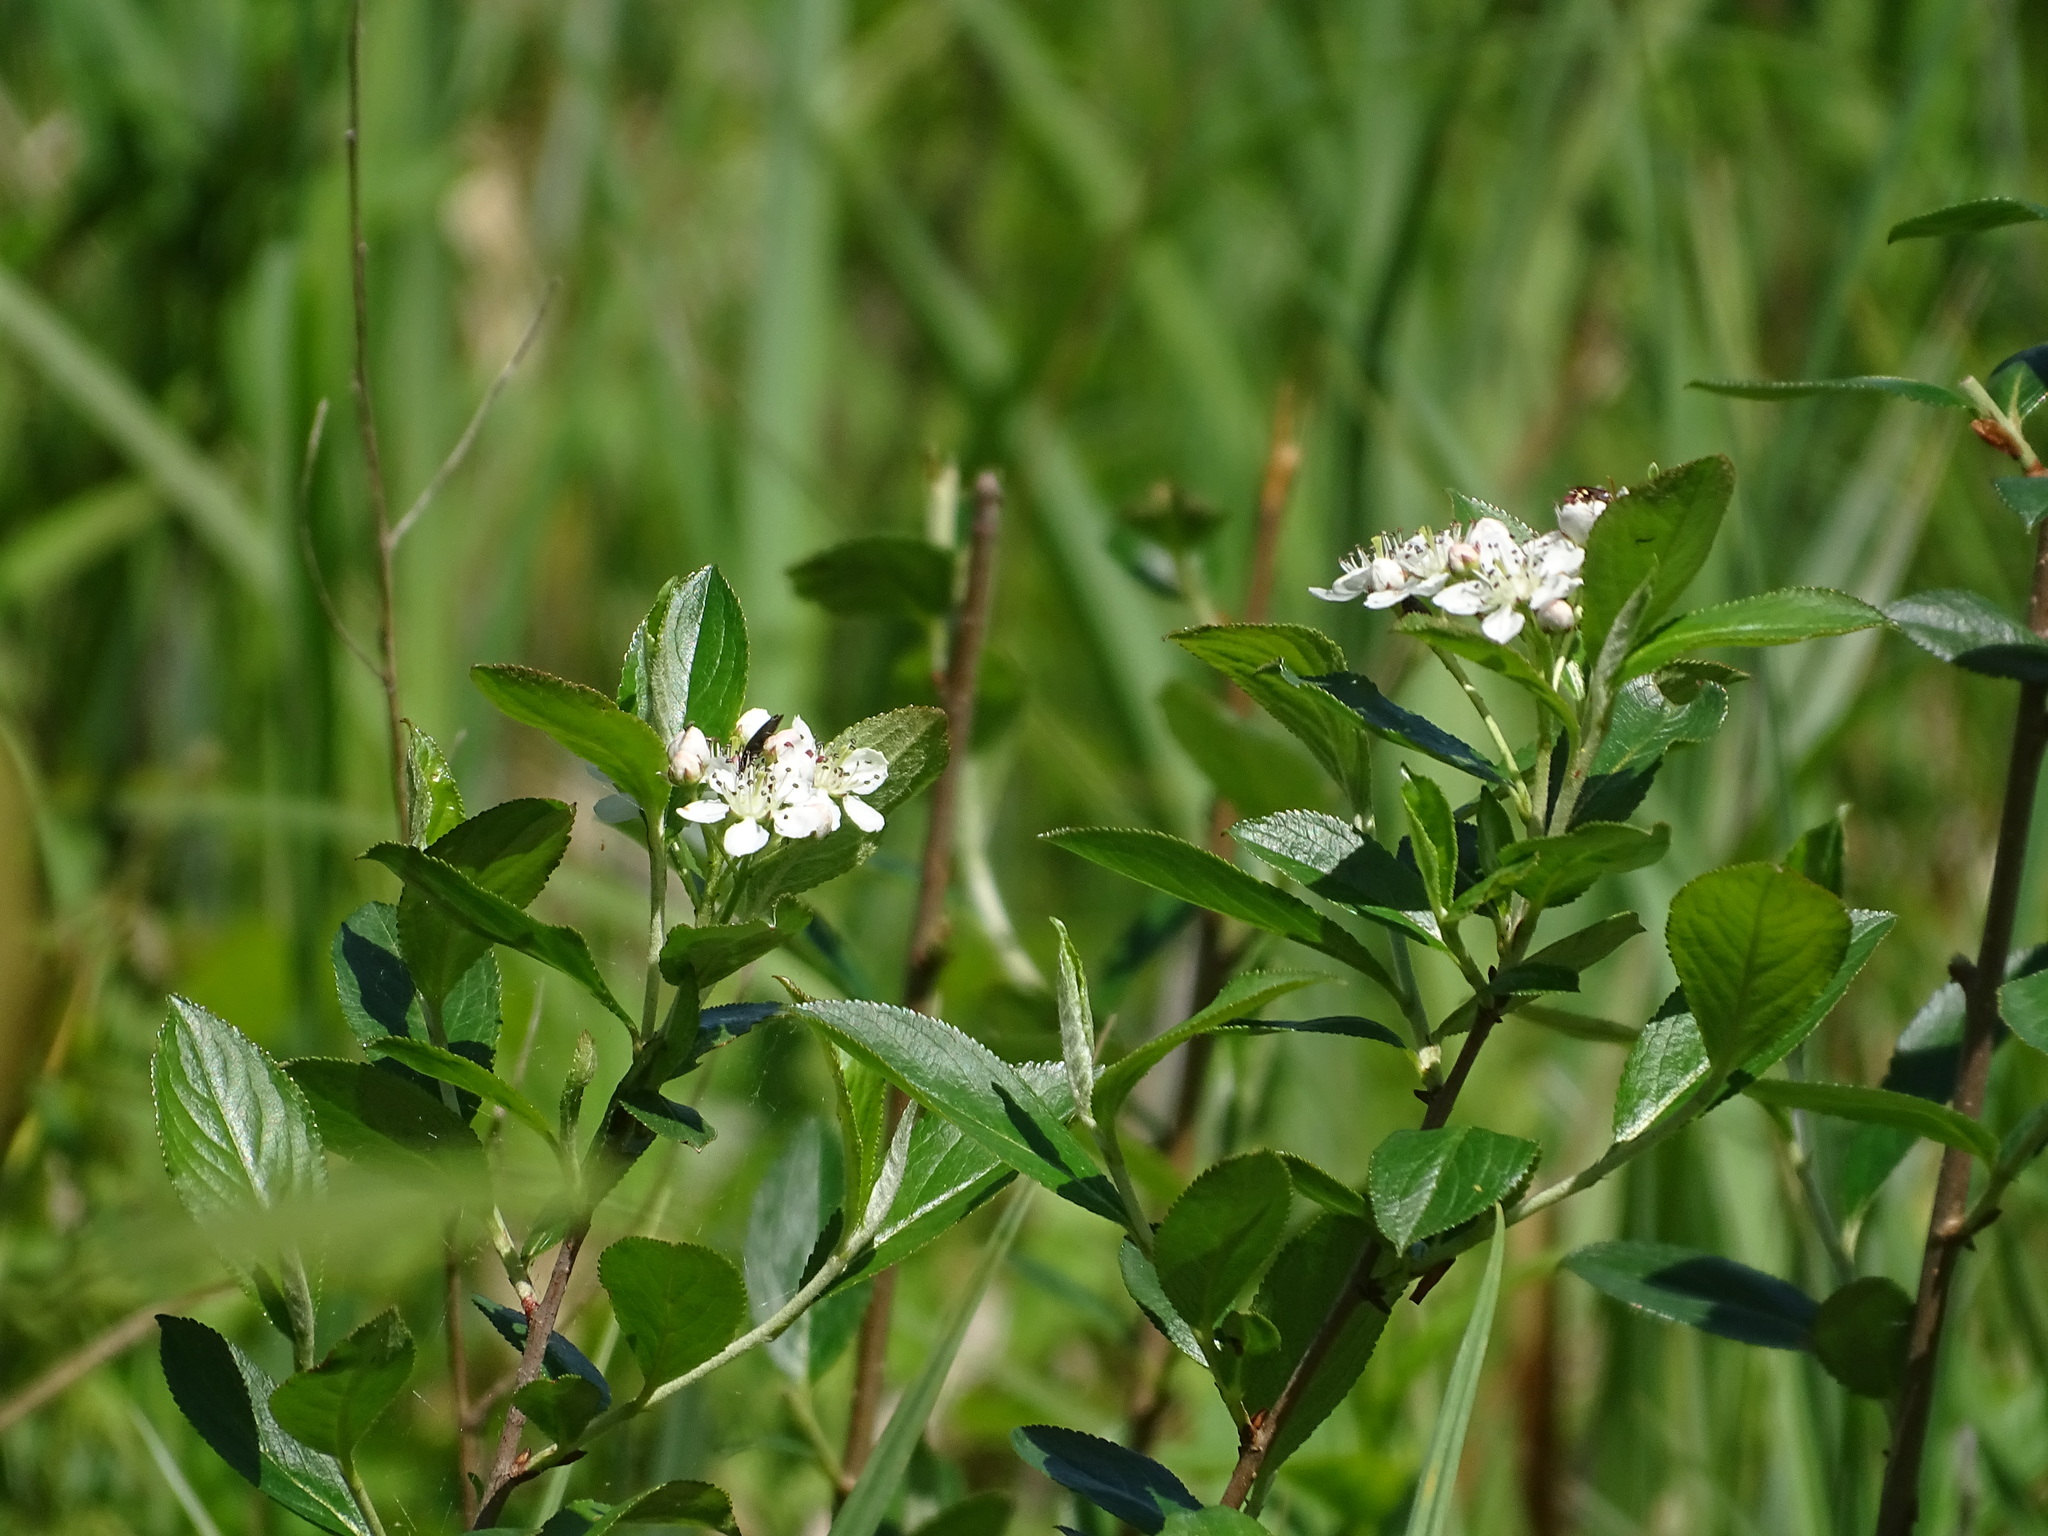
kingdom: Plantae
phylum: Tracheophyta
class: Magnoliopsida
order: Rosales
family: Rosaceae
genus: Aronia
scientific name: Aronia melanocarpa
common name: Black chokeberry
